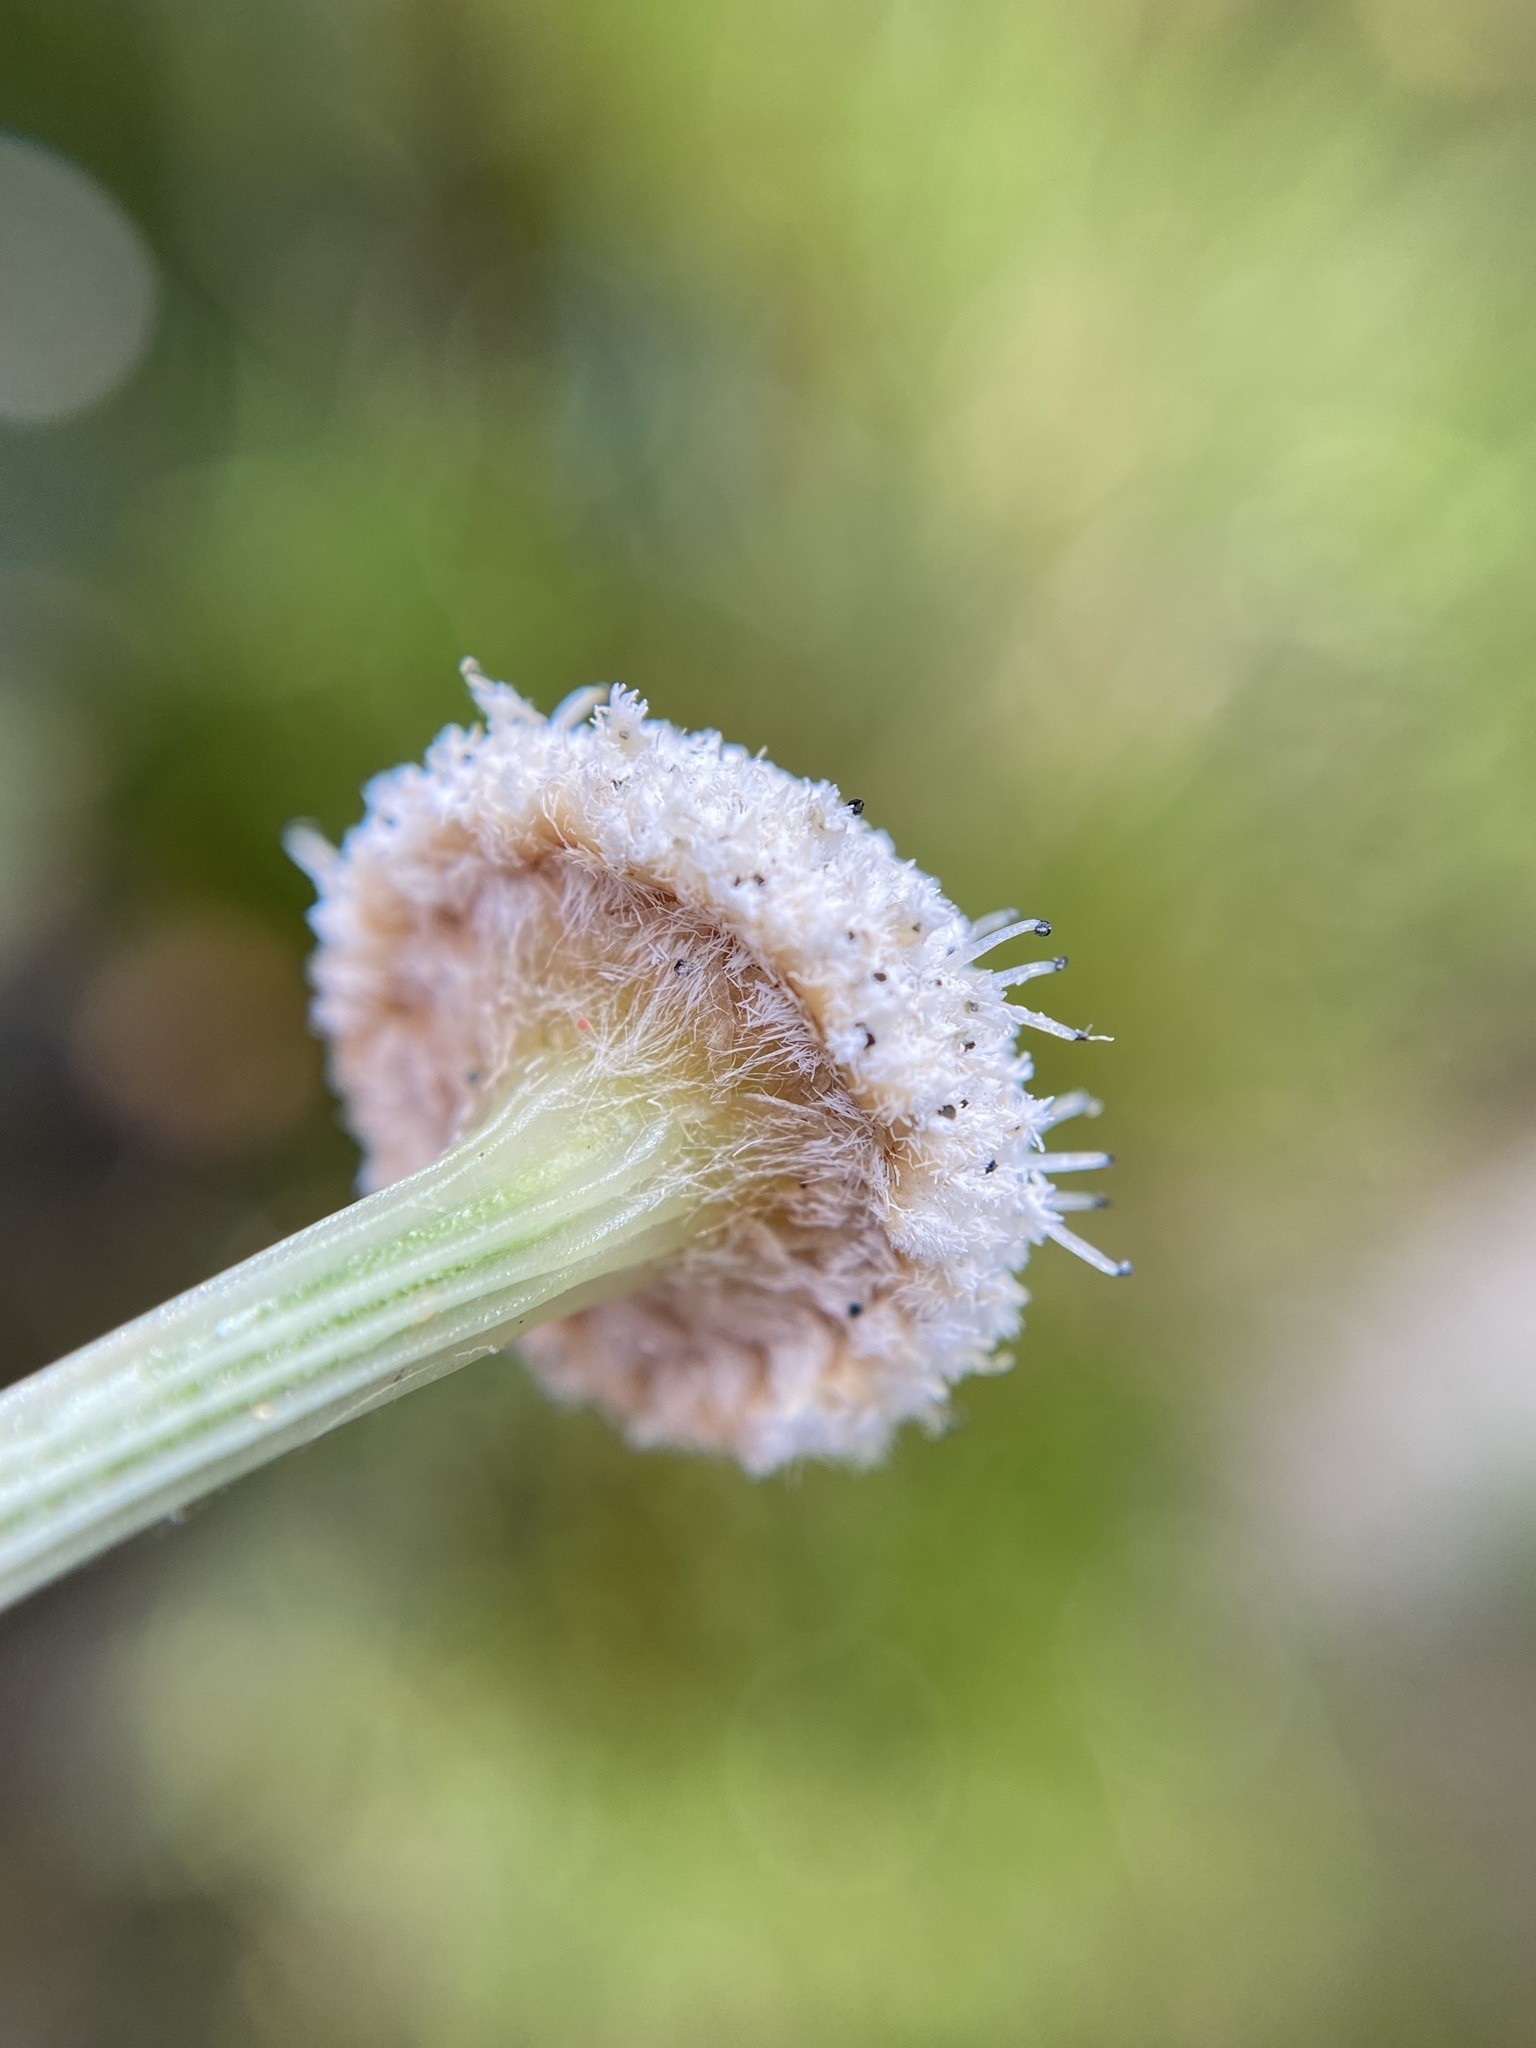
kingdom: Plantae
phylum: Tracheophyta
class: Liliopsida
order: Poales
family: Eriocaulaceae
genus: Eriocaulon
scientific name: Eriocaulon decangulare
